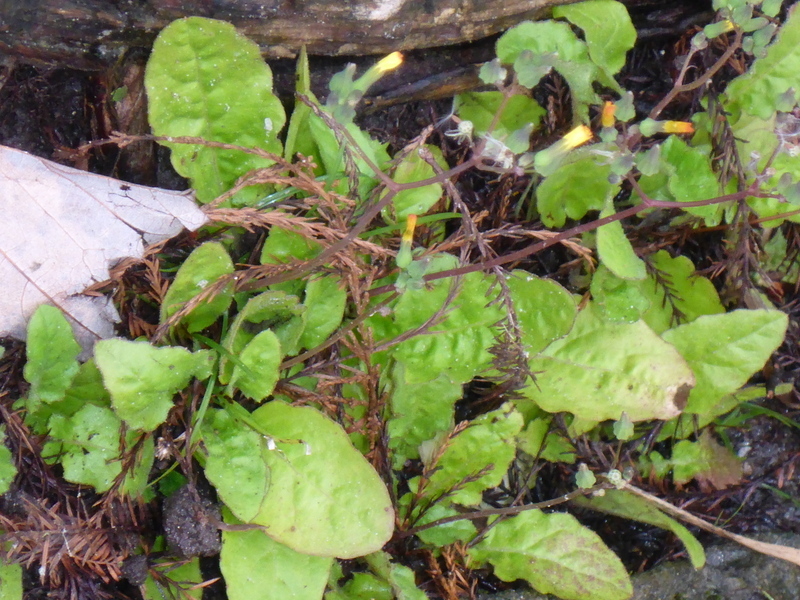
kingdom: Plantae
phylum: Tracheophyta
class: Magnoliopsida
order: Asterales
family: Asteraceae
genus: Youngia
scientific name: Youngia japonica
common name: Oriental false hawksbeard
